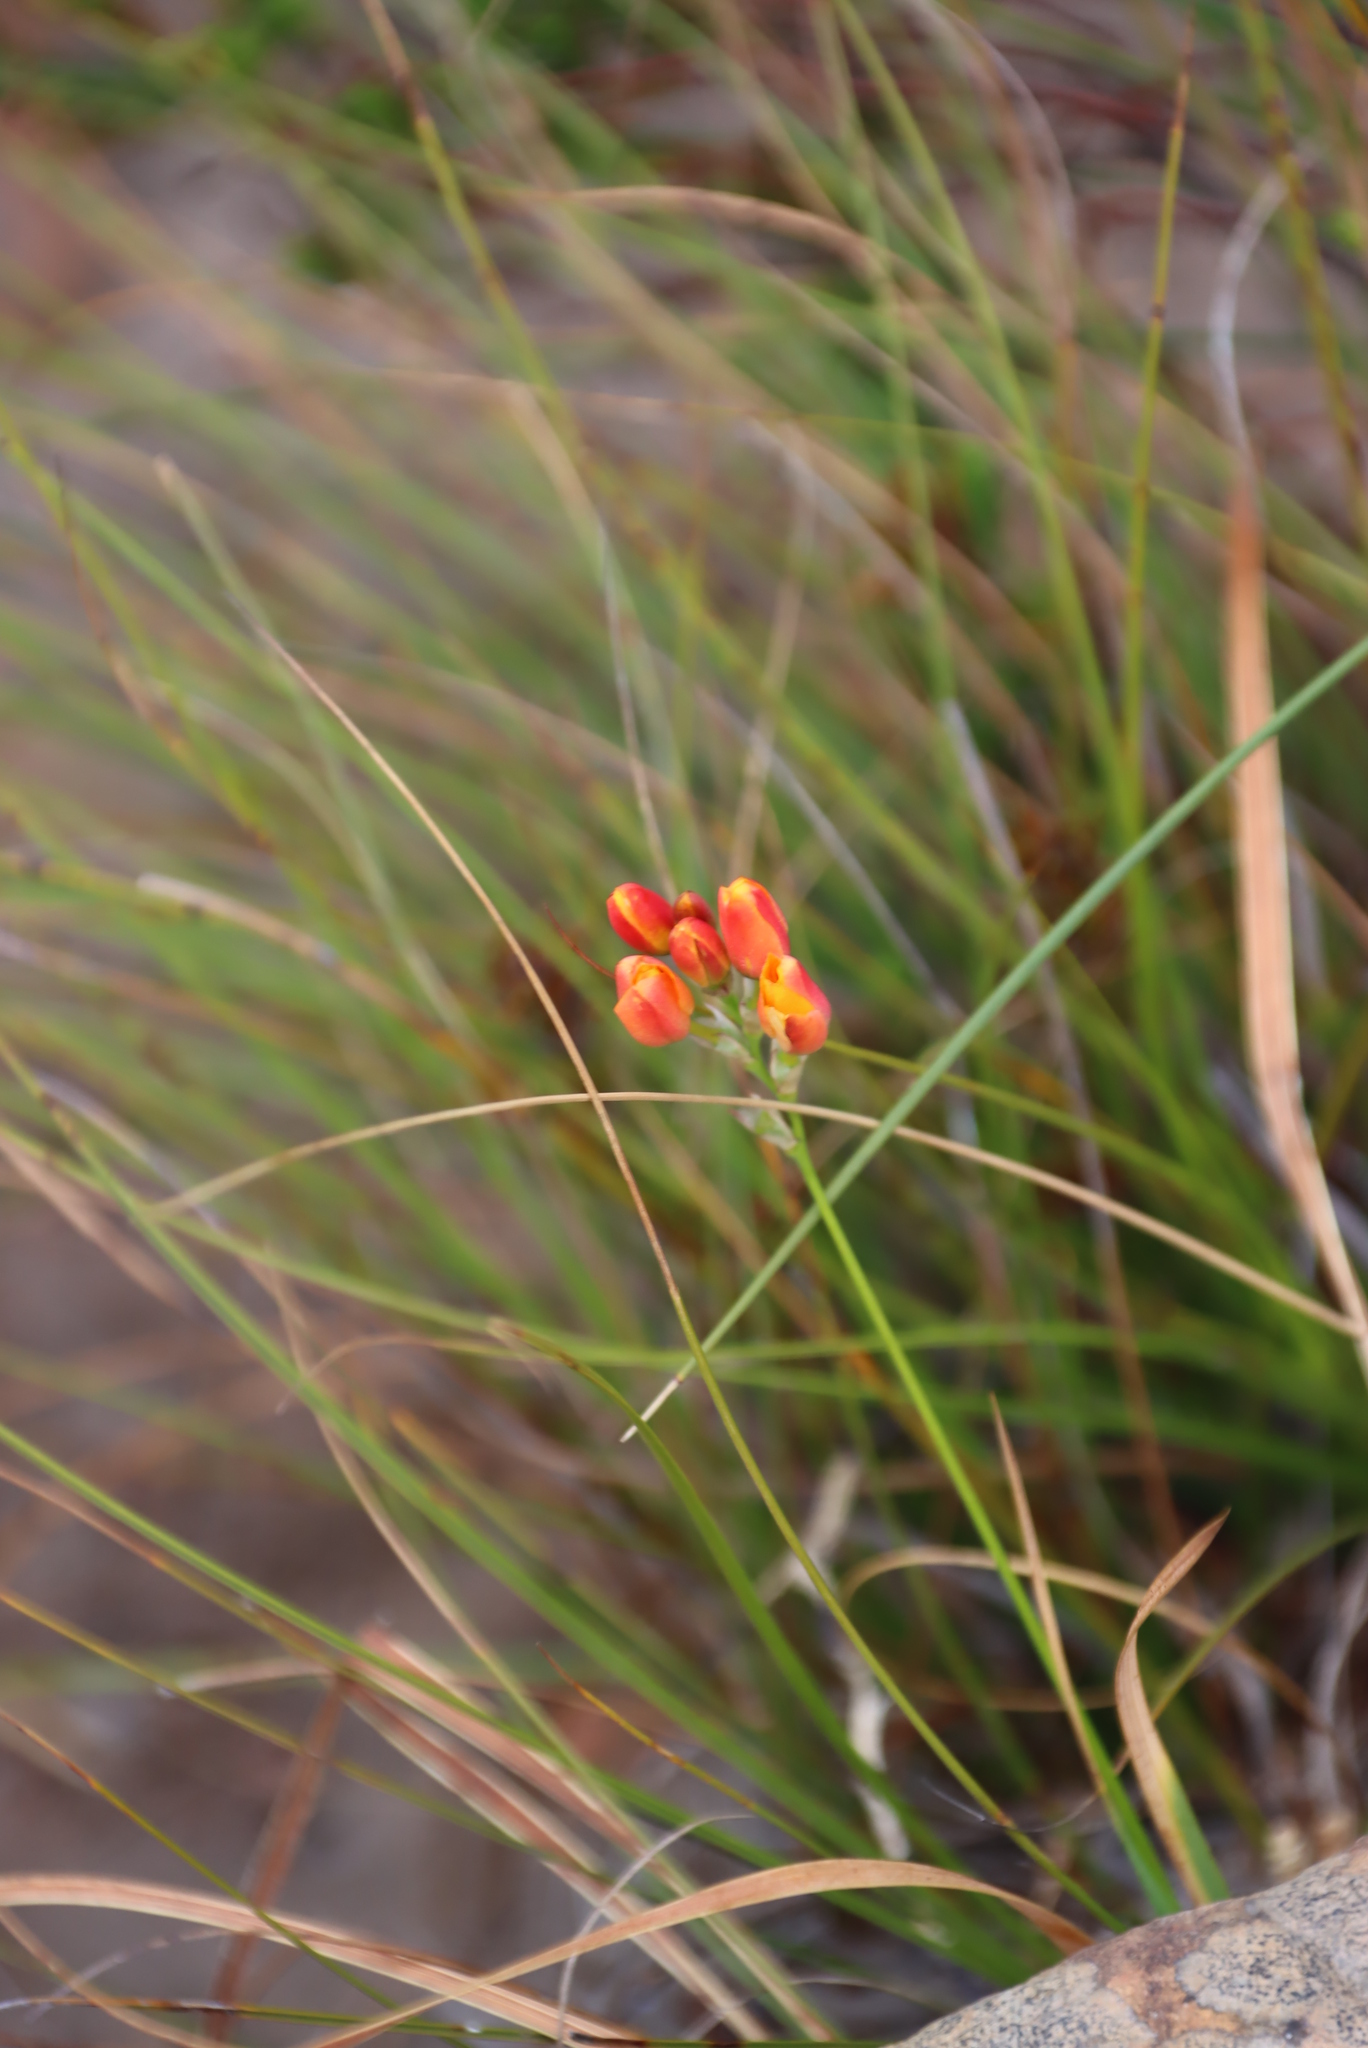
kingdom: Plantae
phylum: Tracheophyta
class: Liliopsida
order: Asparagales
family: Iridaceae
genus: Ixia
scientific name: Ixia dubia
